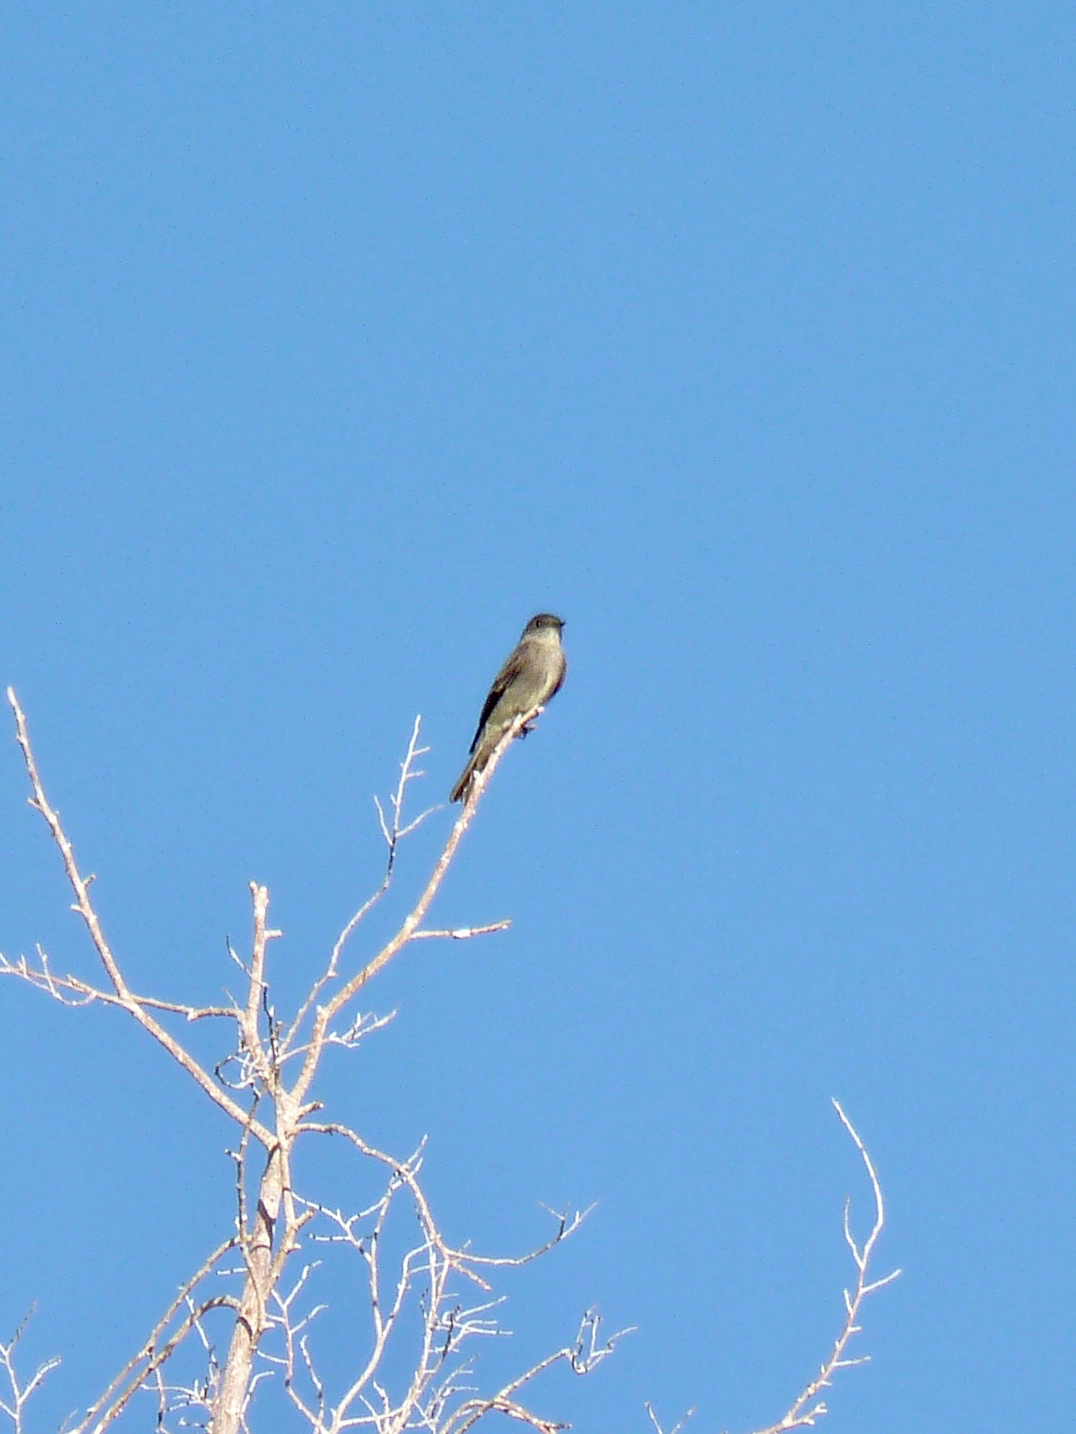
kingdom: Animalia
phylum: Chordata
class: Aves
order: Passeriformes
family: Tyrannidae
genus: Contopus
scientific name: Contopus sordidulus
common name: Western wood-pewee
